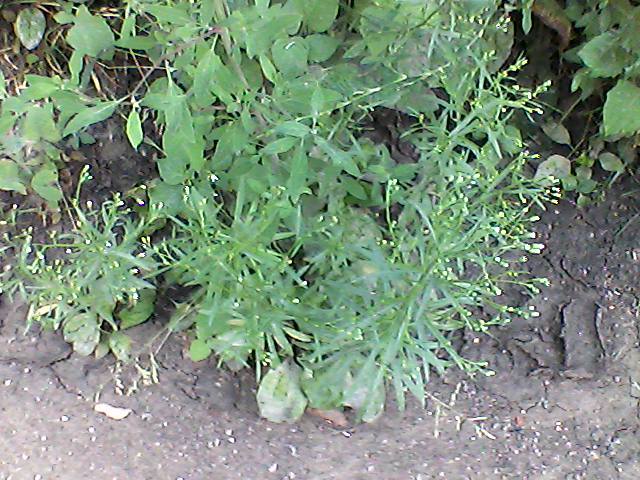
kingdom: Plantae
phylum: Tracheophyta
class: Magnoliopsida
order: Asterales
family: Asteraceae
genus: Erigeron
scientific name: Erigeron canadensis
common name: Canadian fleabane
